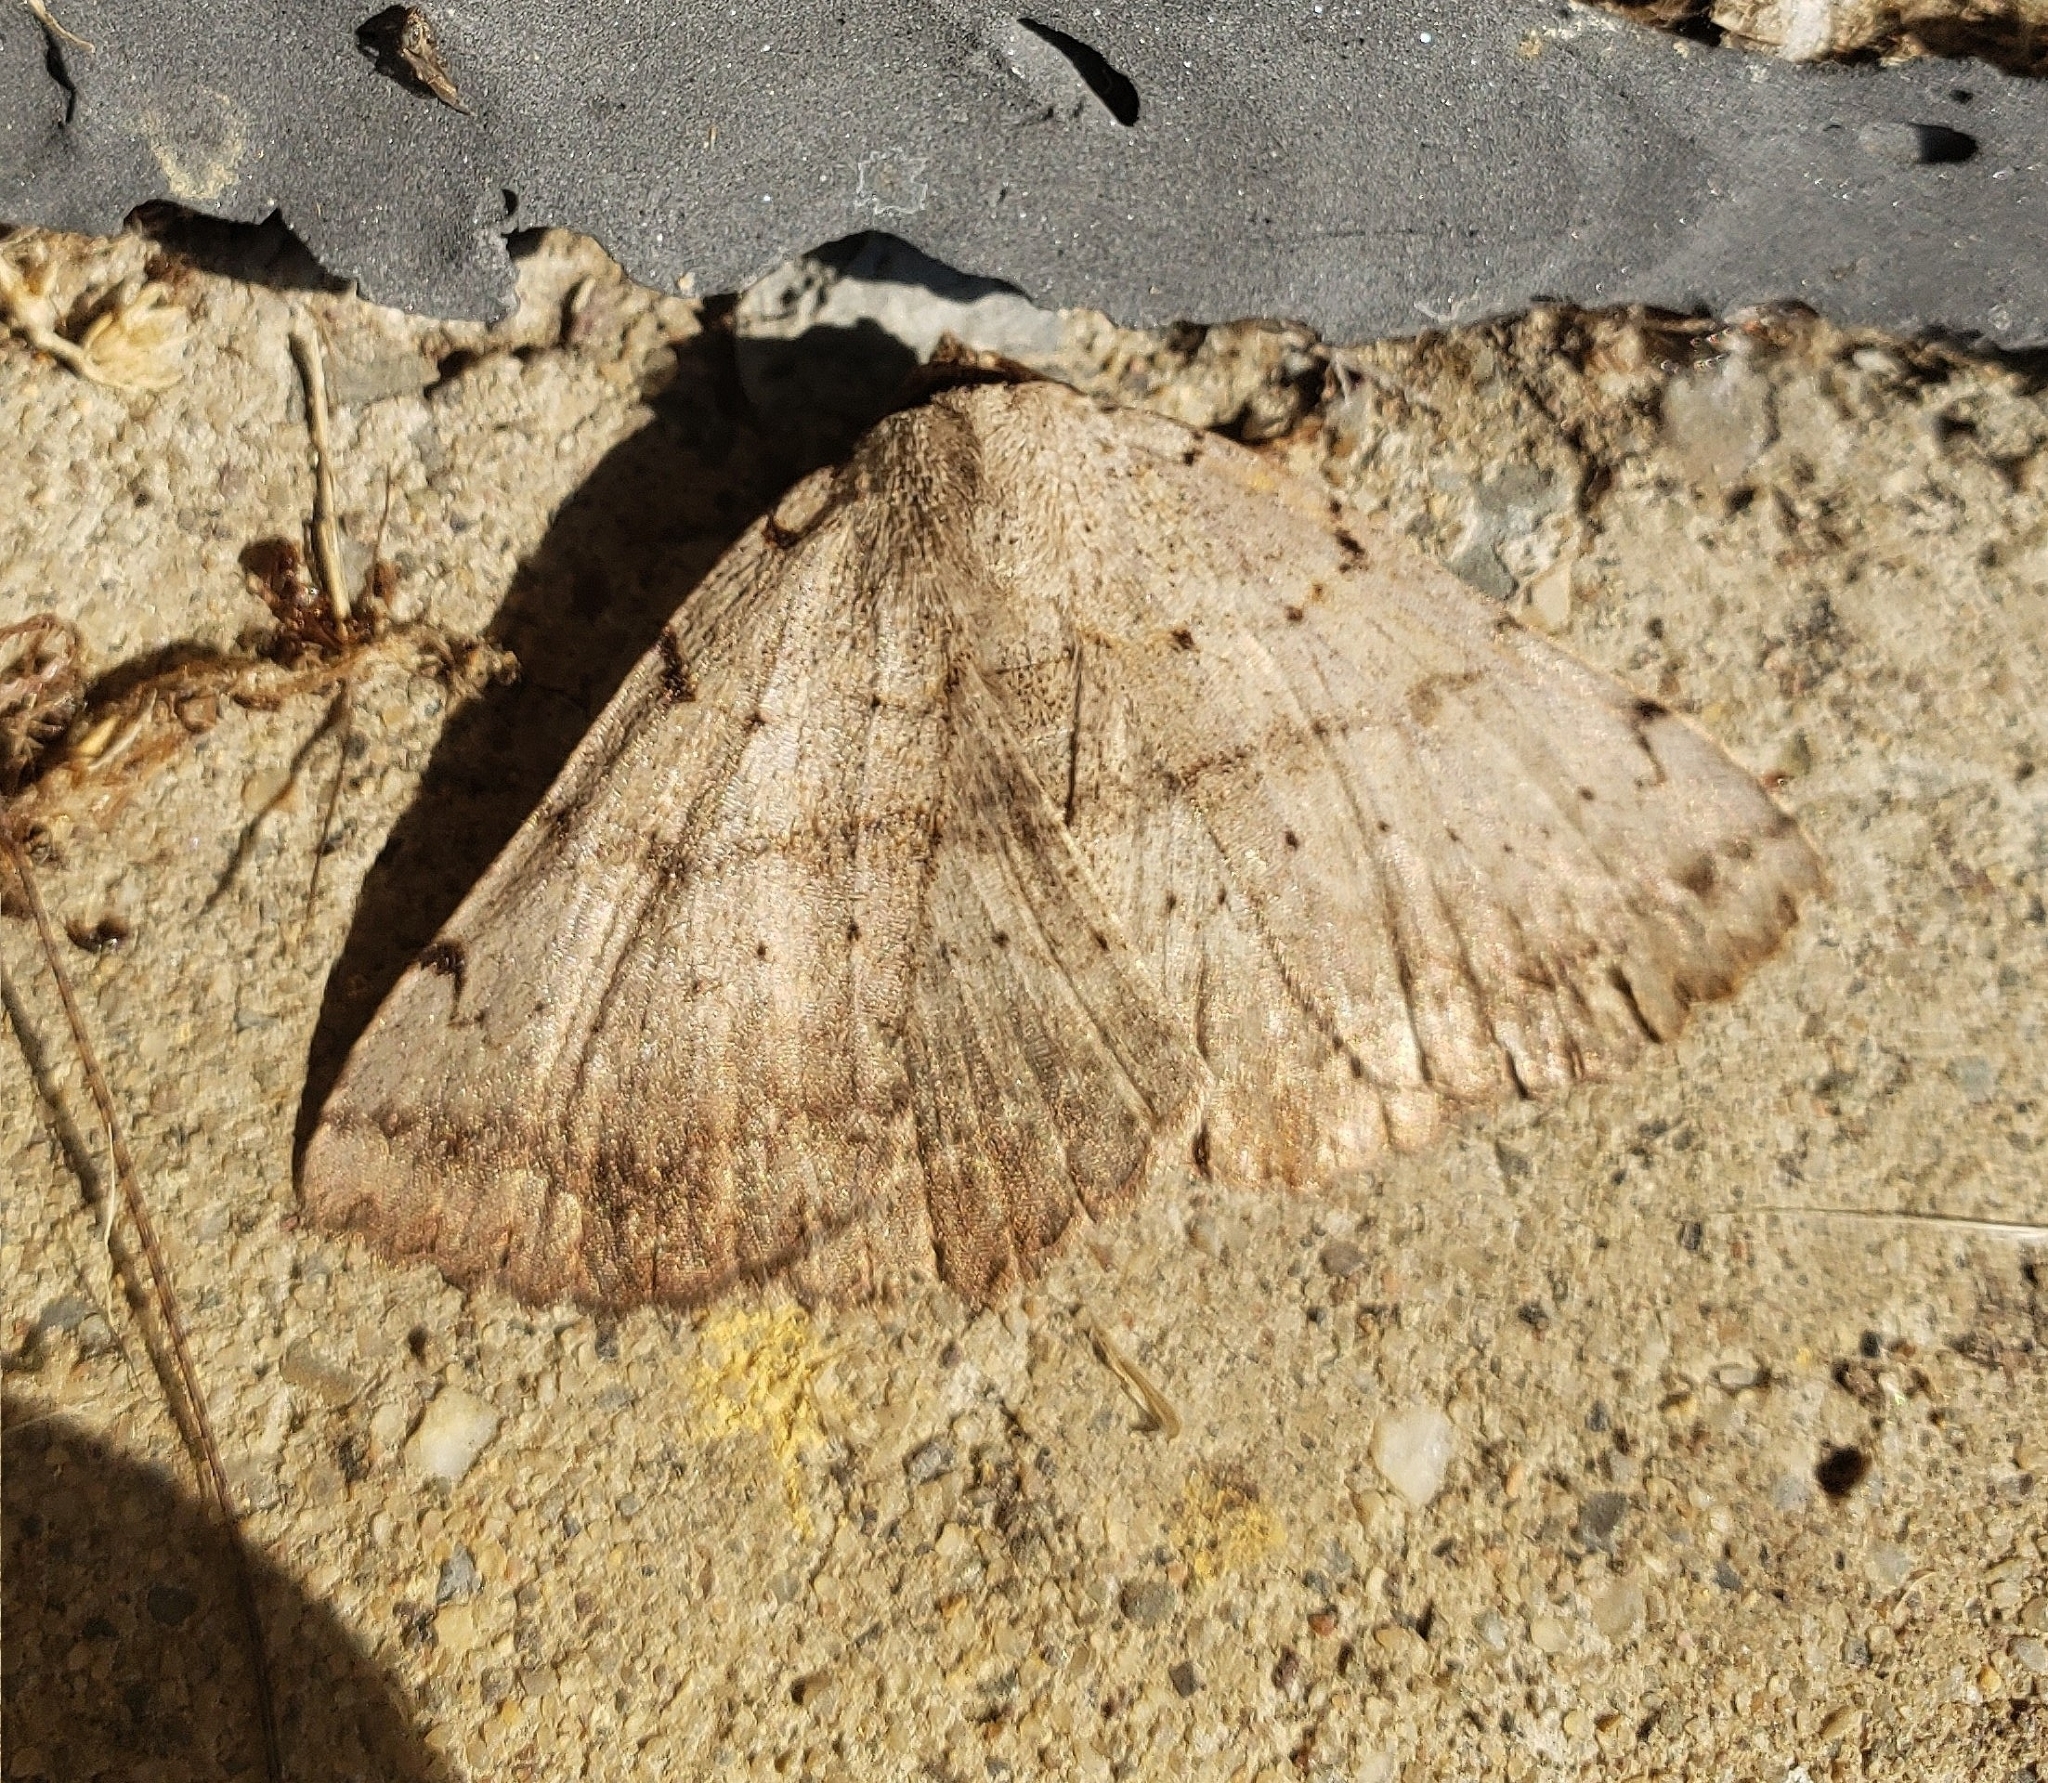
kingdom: Animalia
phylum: Arthropoda
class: Insecta
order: Lepidoptera
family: Erebidae
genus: Spiloloma
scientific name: Spiloloma lunilinea
